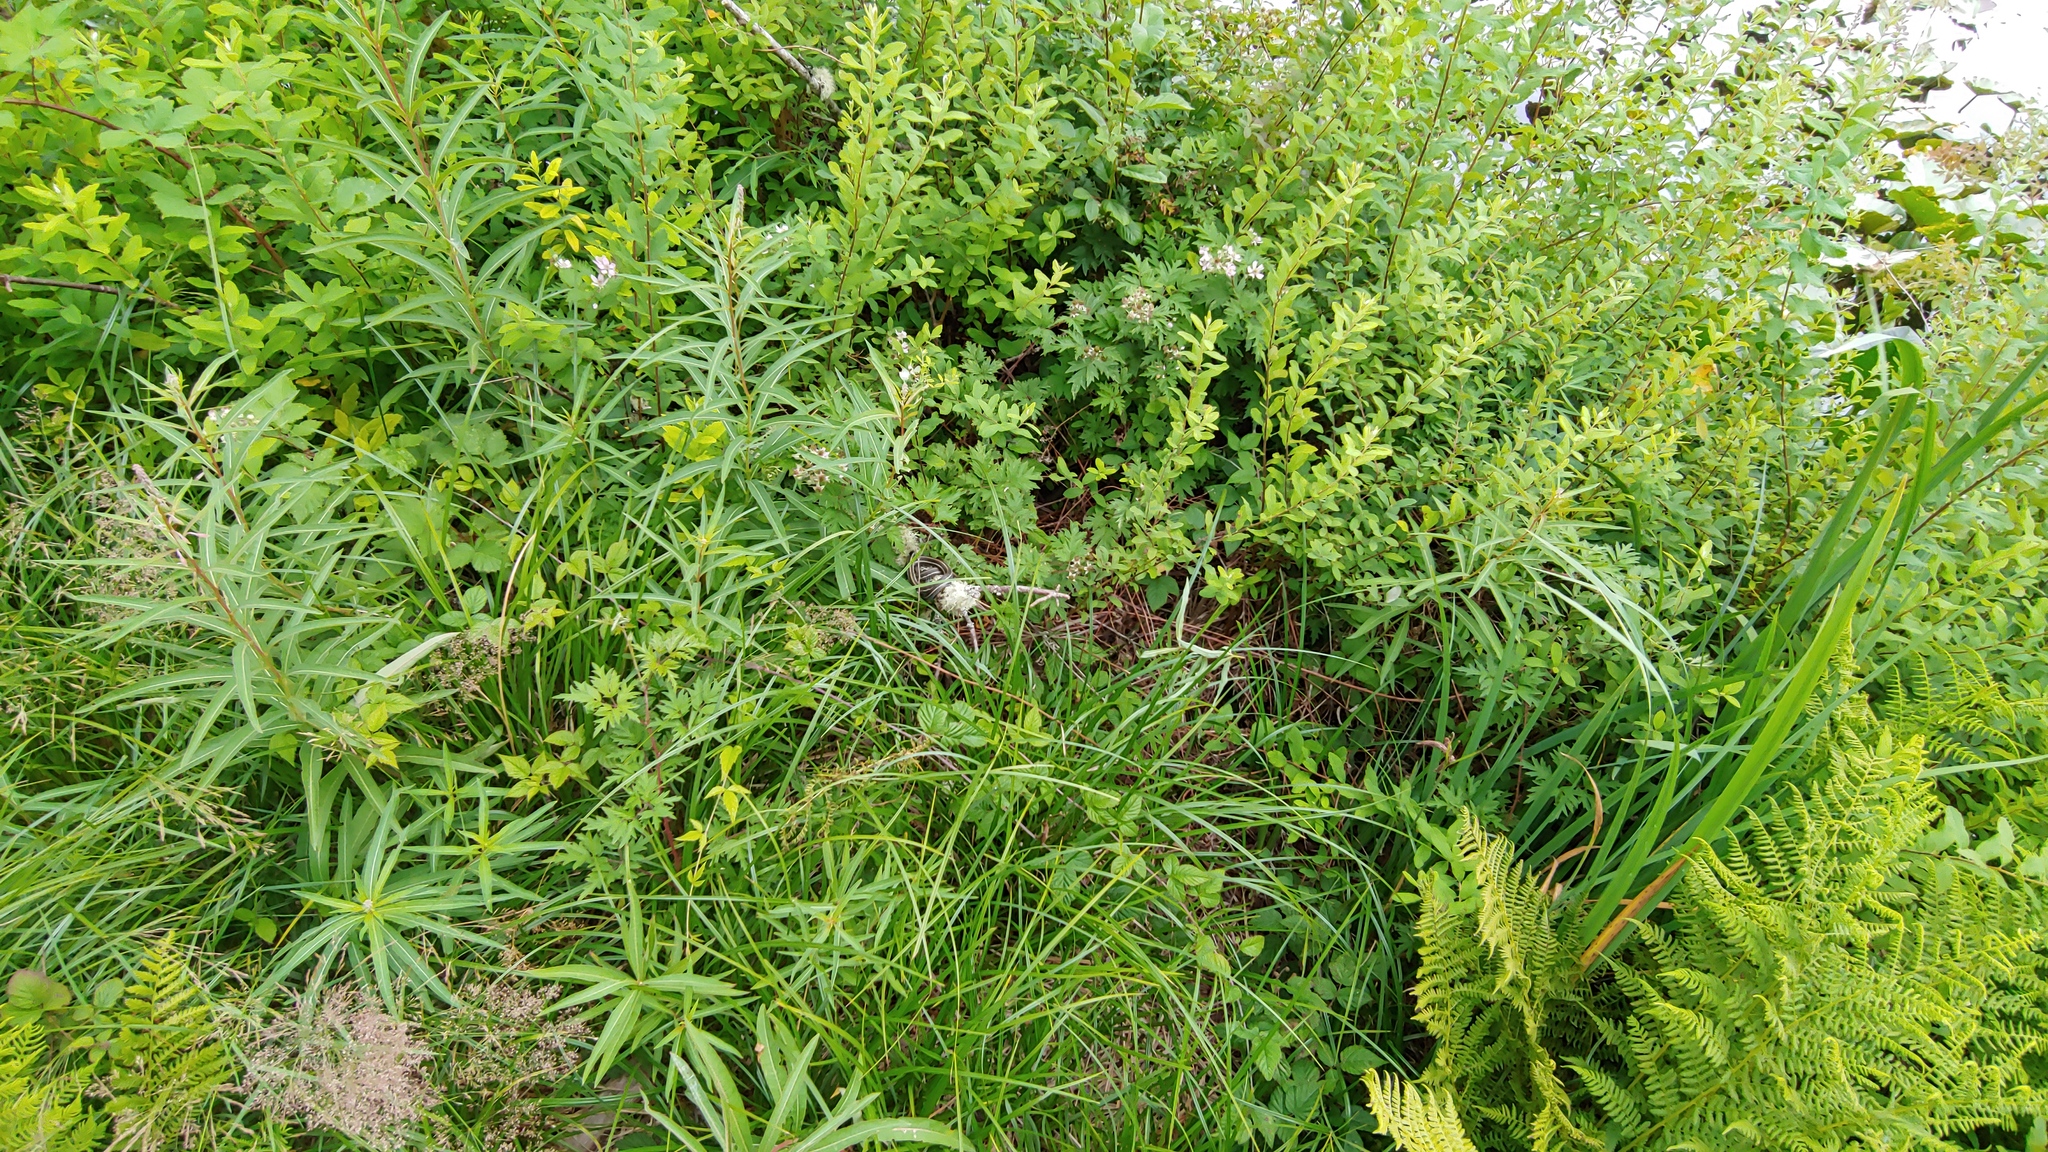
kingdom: Animalia
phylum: Chordata
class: Squamata
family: Colubridae
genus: Thamnophis
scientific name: Thamnophis
